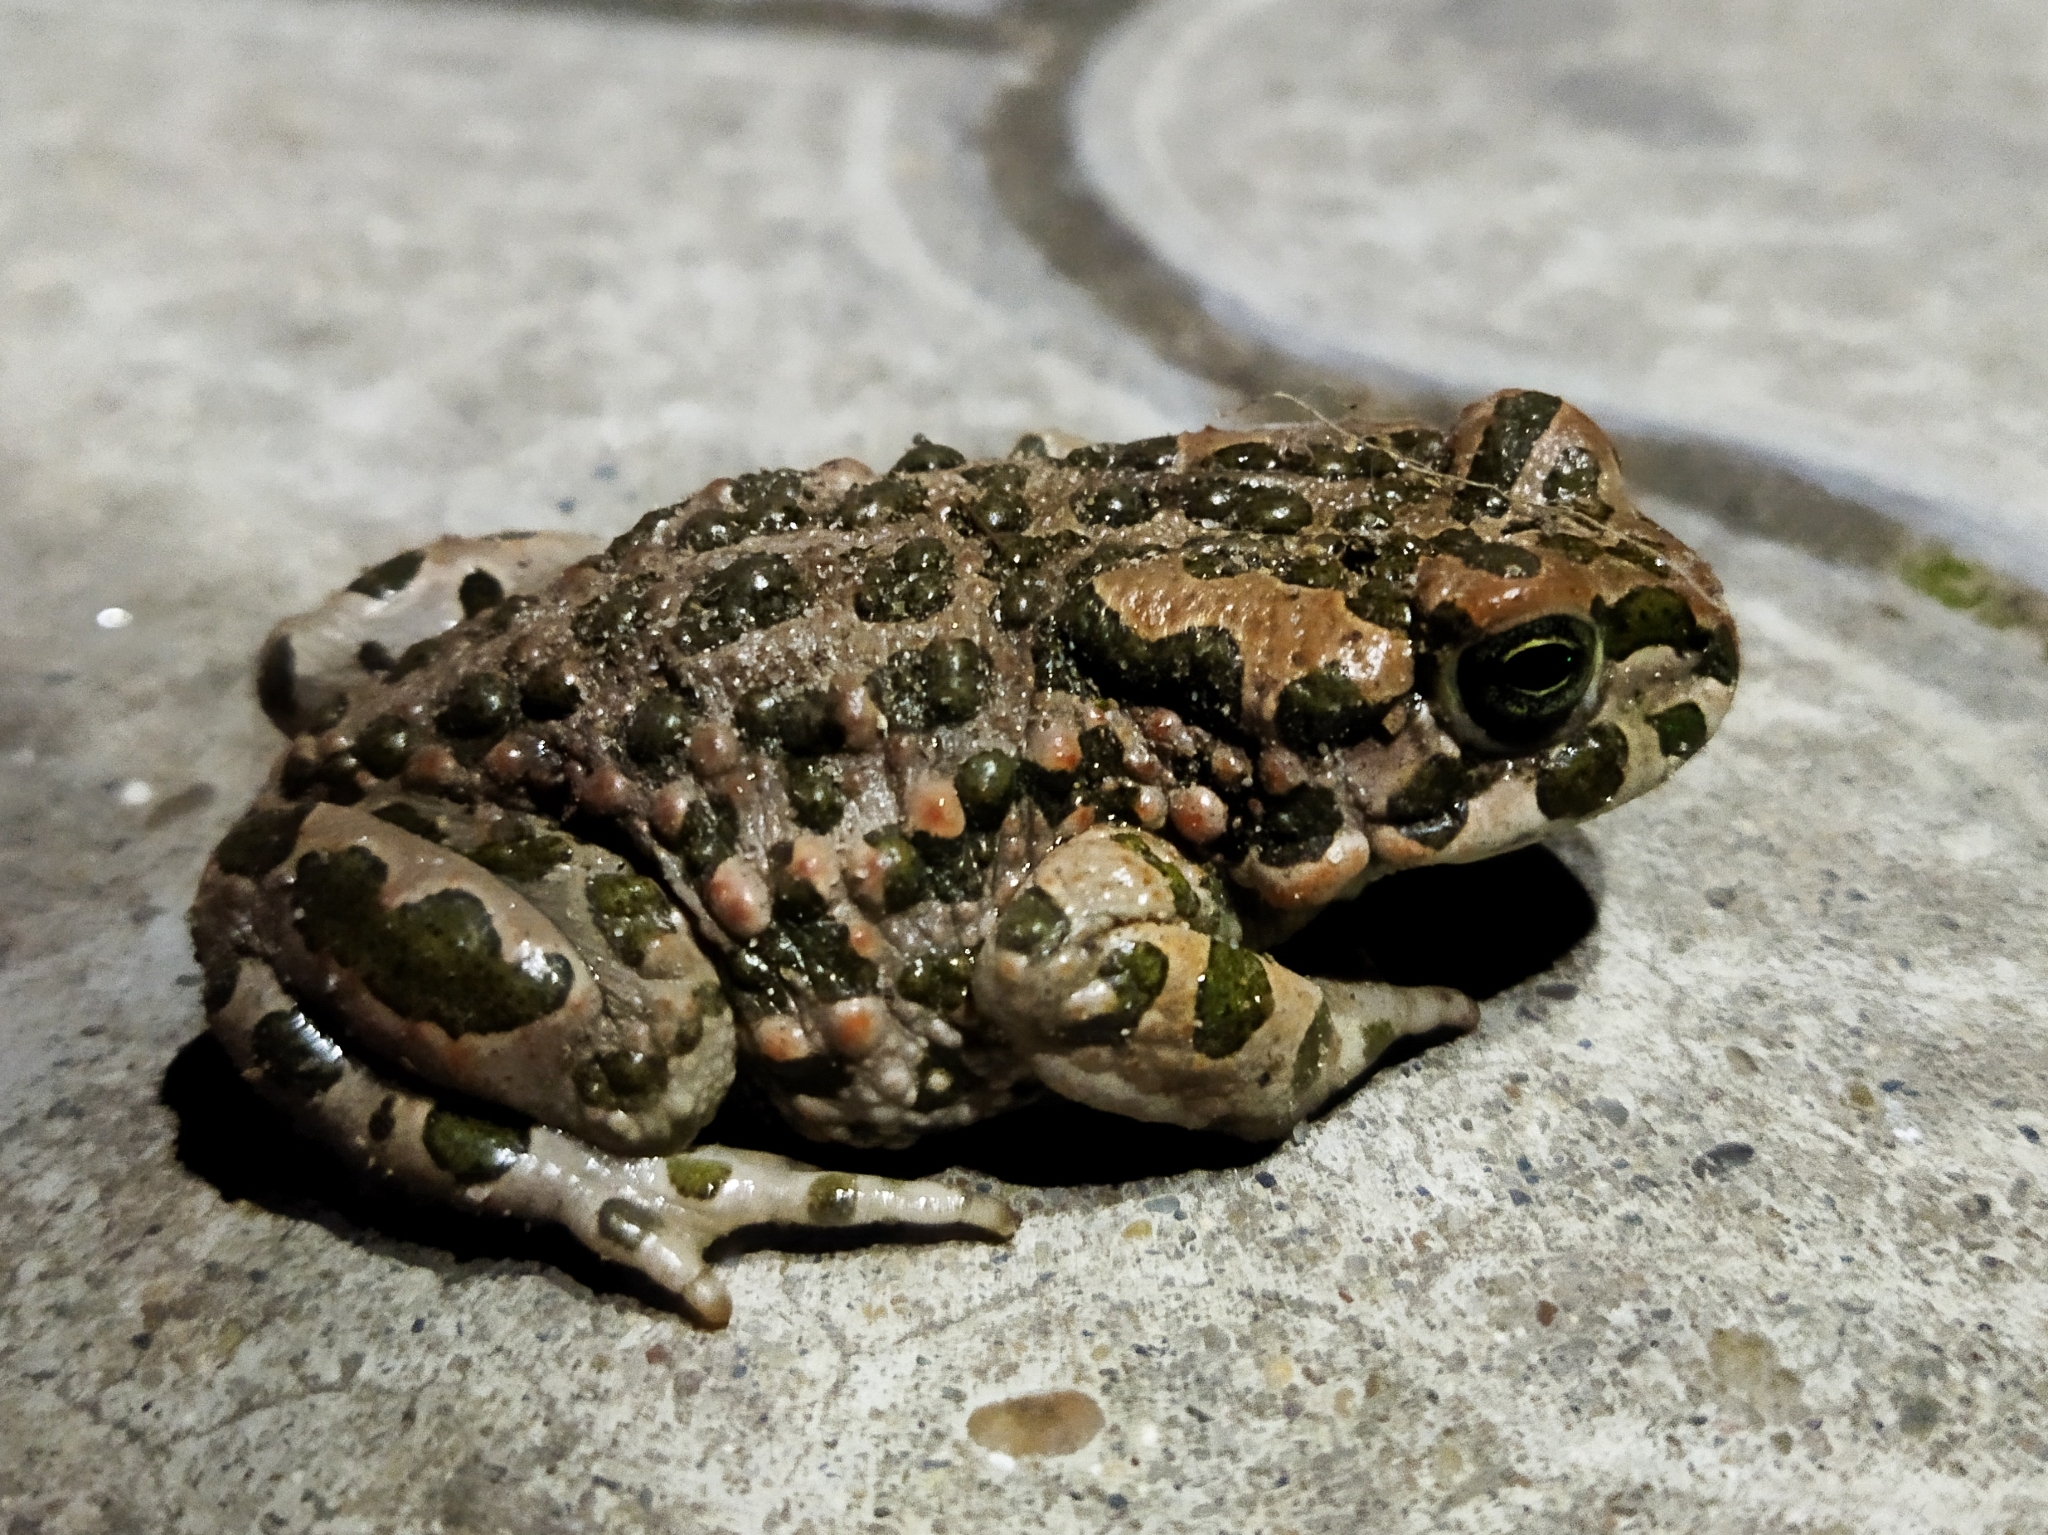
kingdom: Animalia
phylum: Chordata
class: Amphibia
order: Anura
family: Bufonidae
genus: Bufotes
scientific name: Bufotes viridis
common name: European green toad
